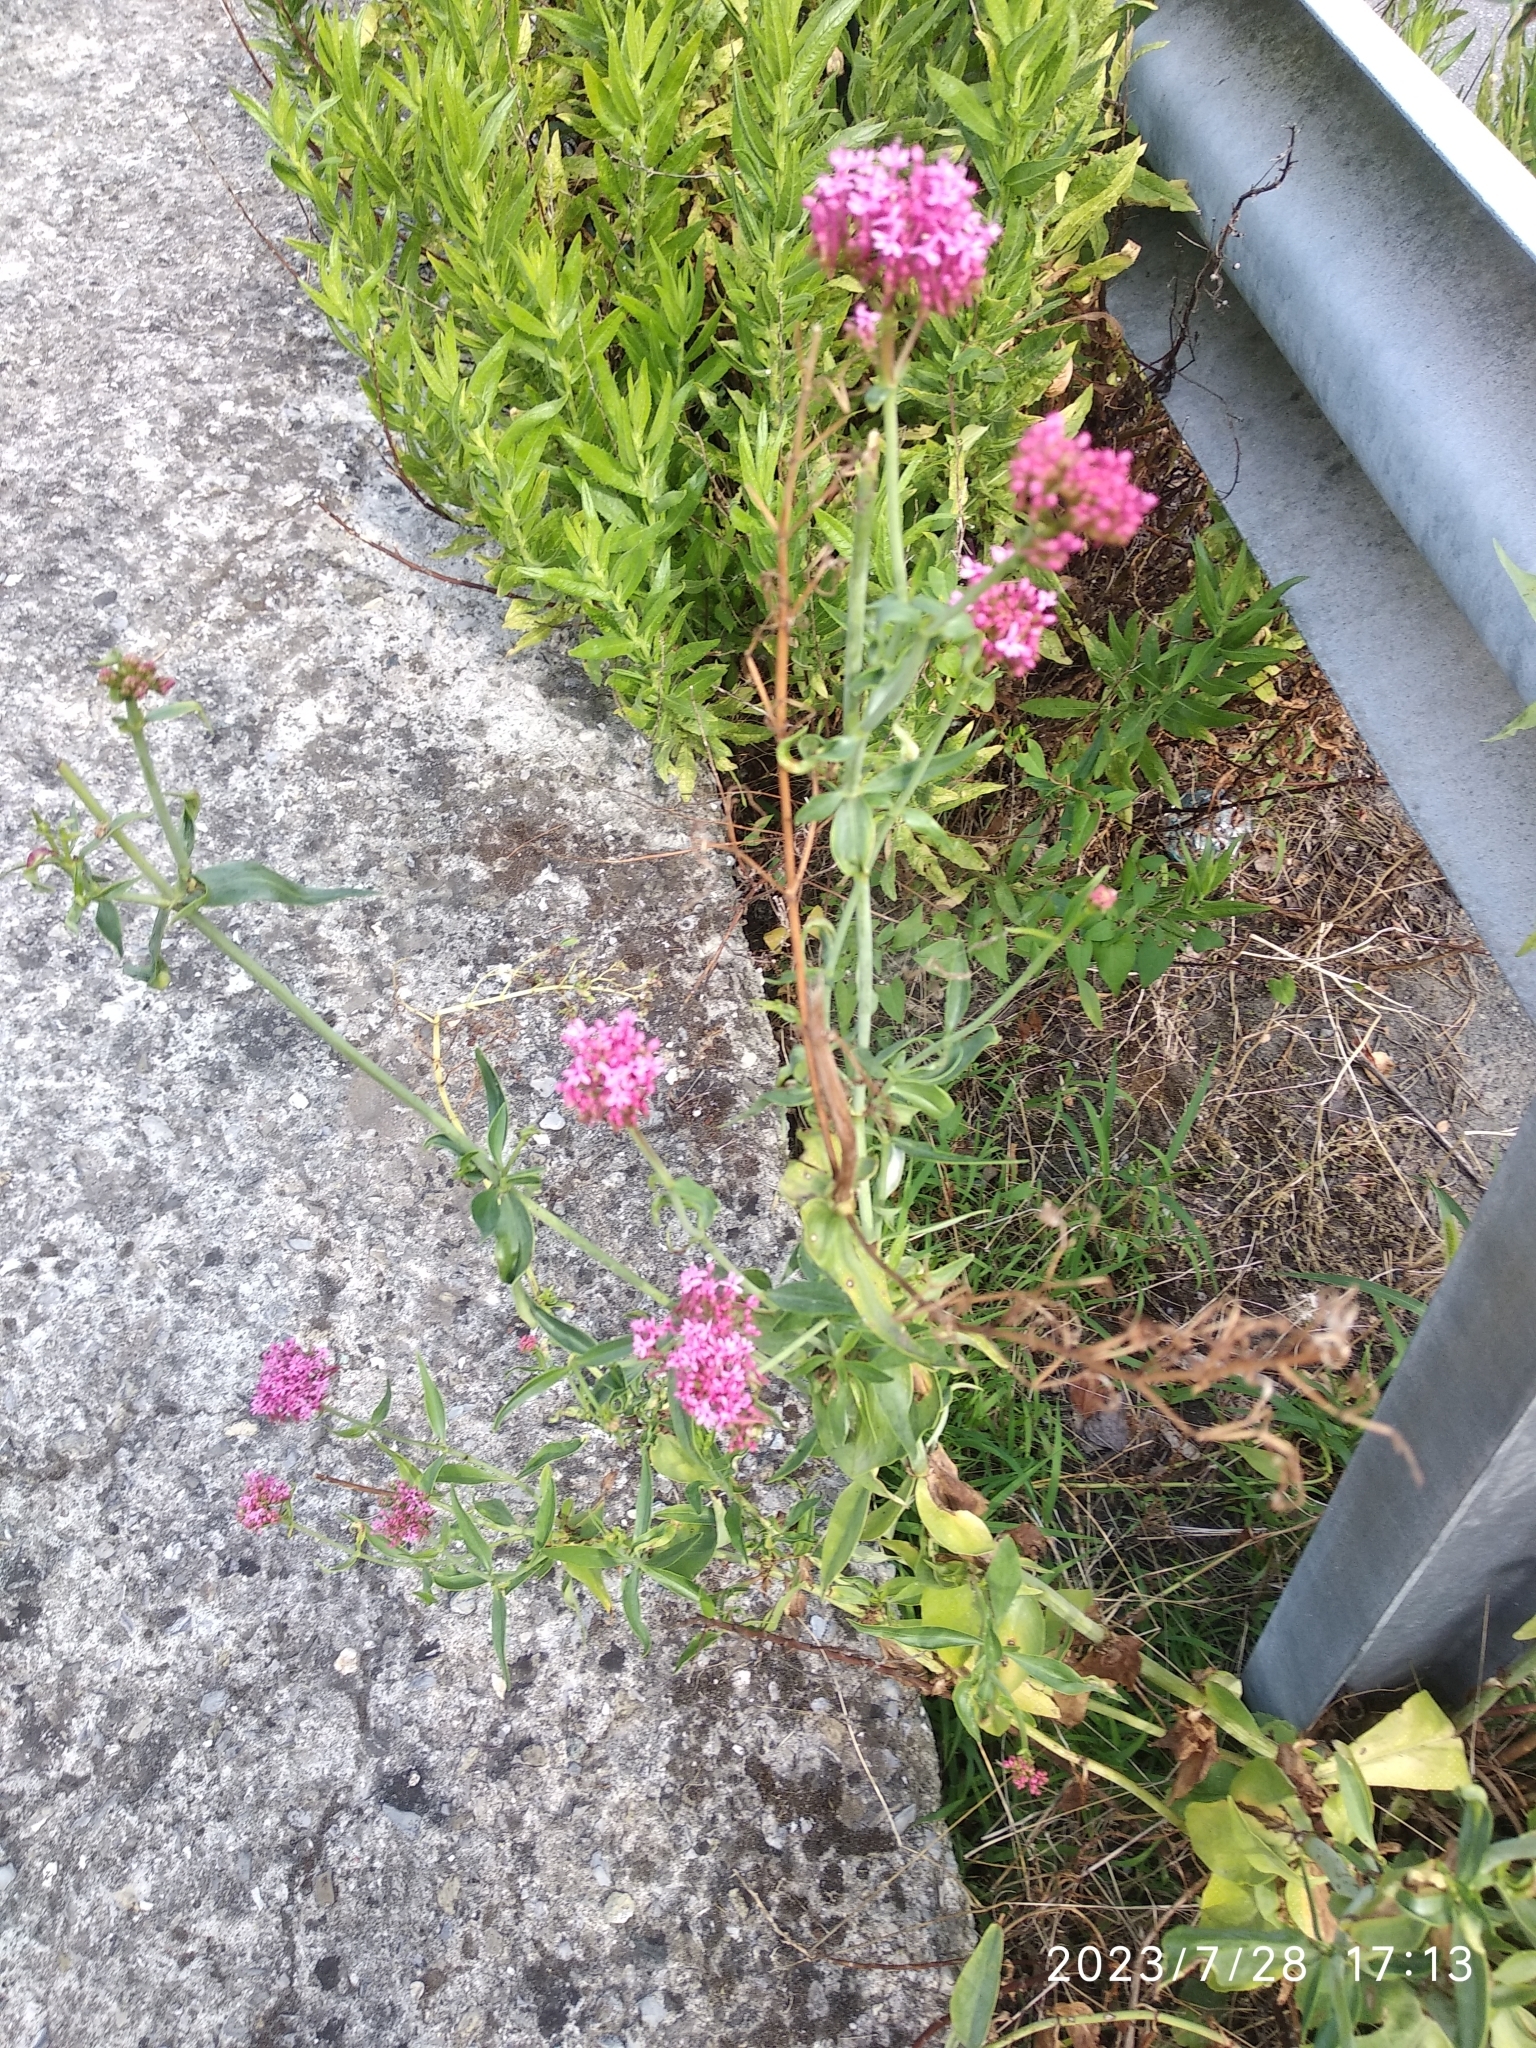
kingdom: Plantae
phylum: Tracheophyta
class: Magnoliopsida
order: Dipsacales
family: Caprifoliaceae
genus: Centranthus
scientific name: Centranthus ruber
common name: Red valerian
